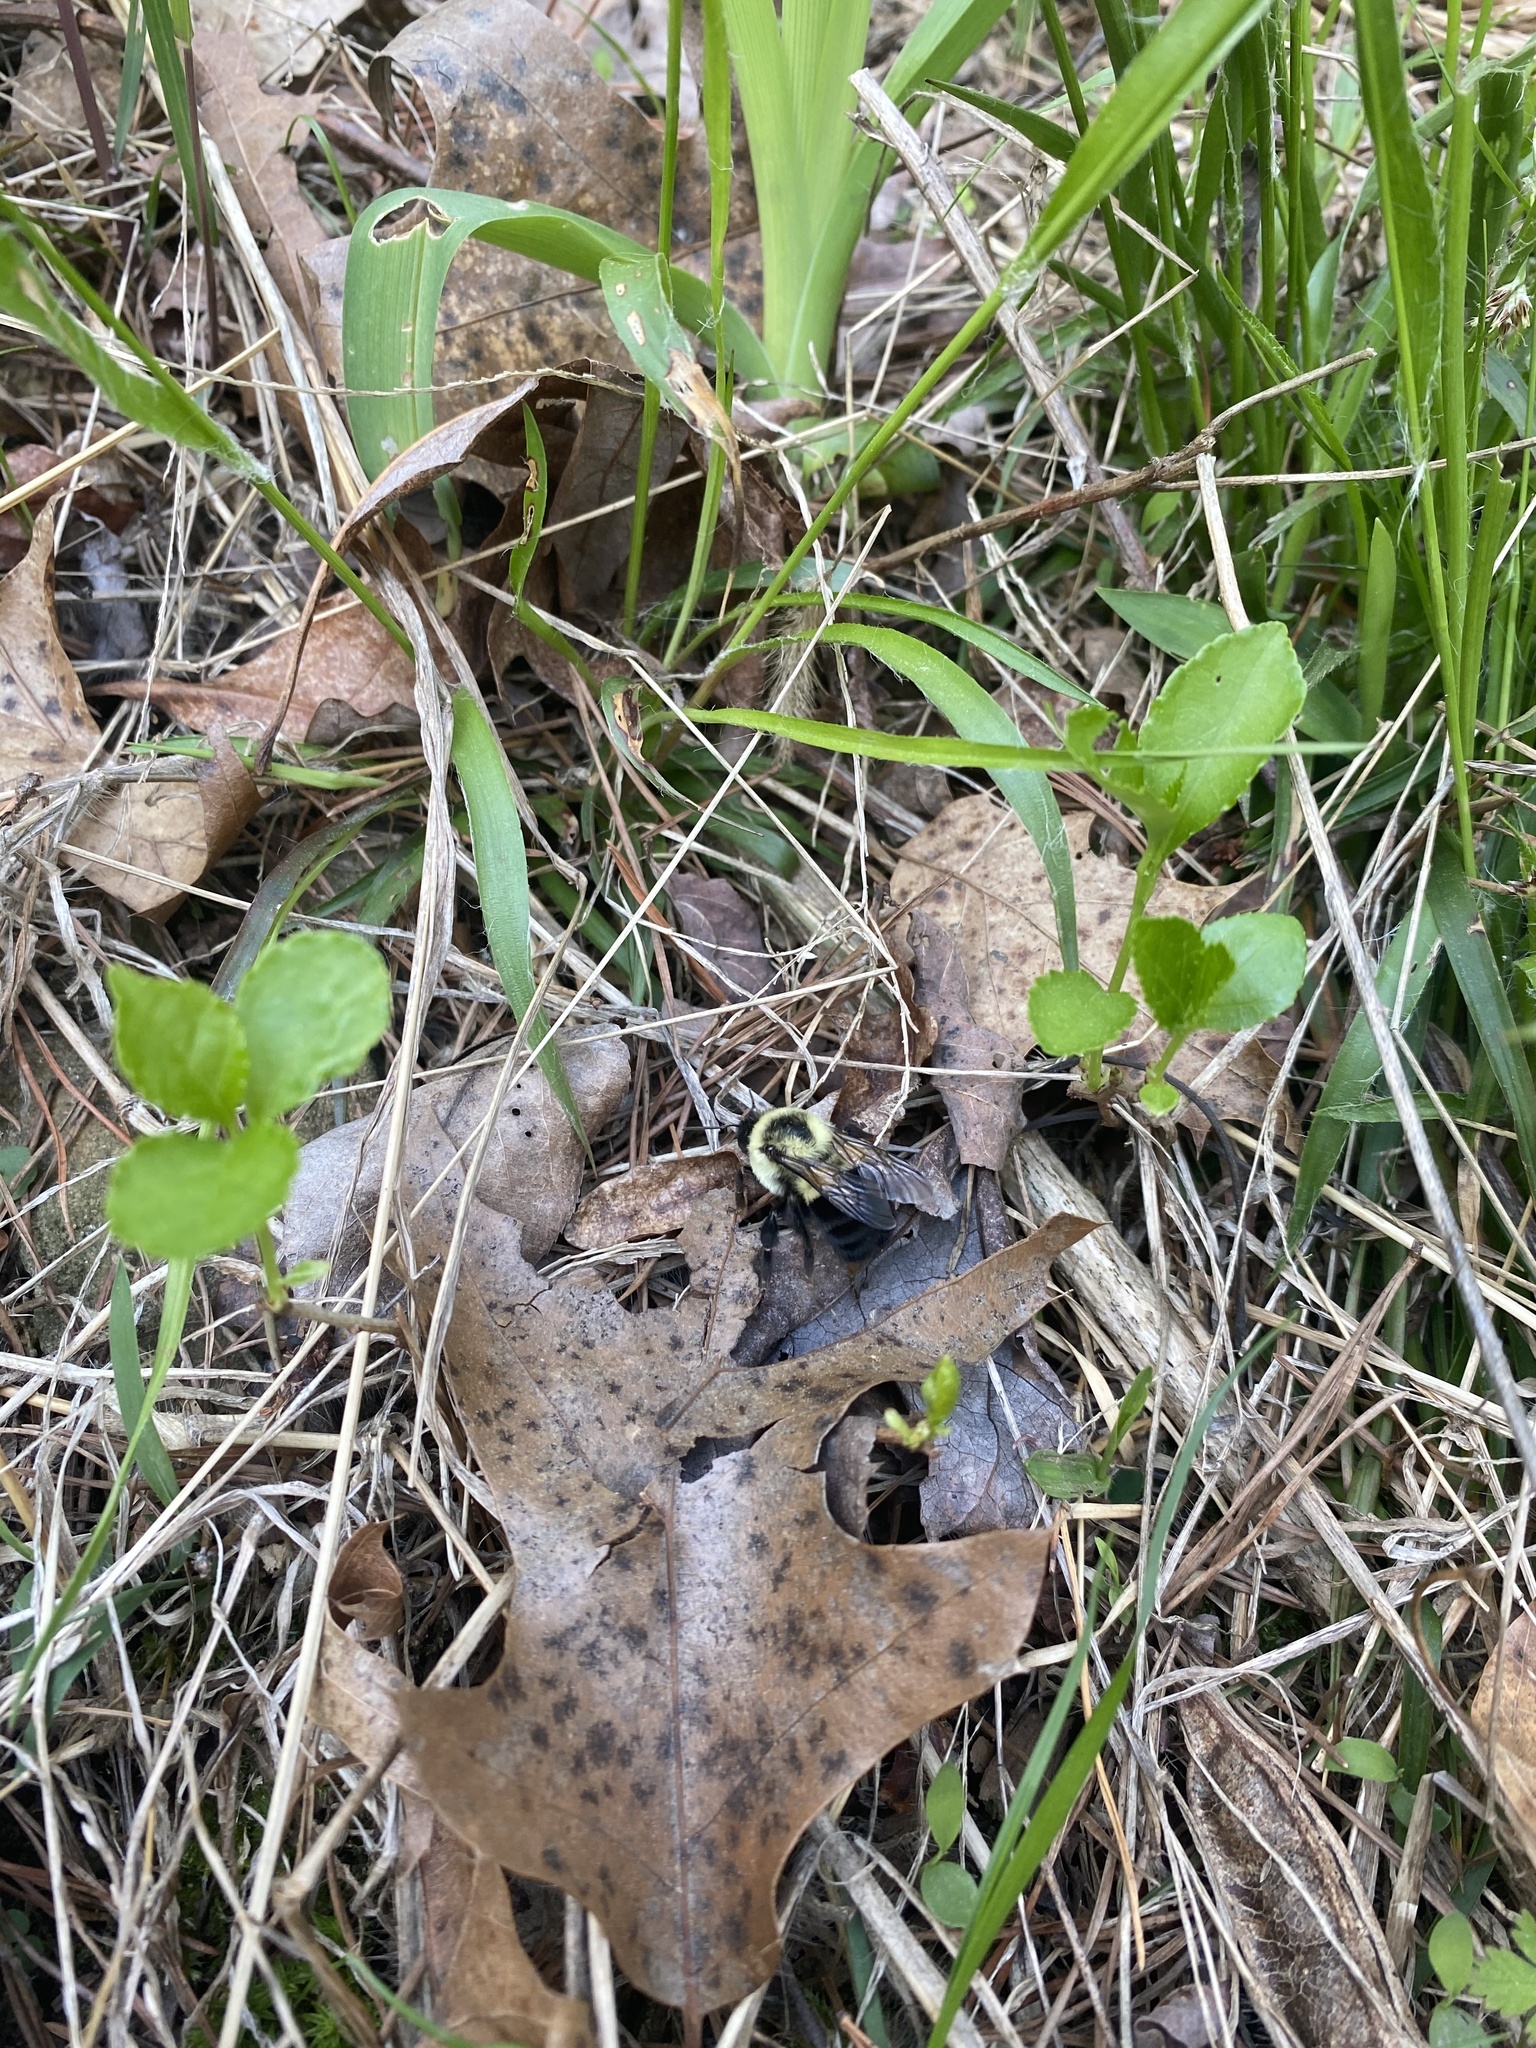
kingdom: Animalia
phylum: Arthropoda
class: Insecta
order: Hymenoptera
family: Apidae
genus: Bombus
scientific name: Bombus impatiens
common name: Common eastern bumble bee
